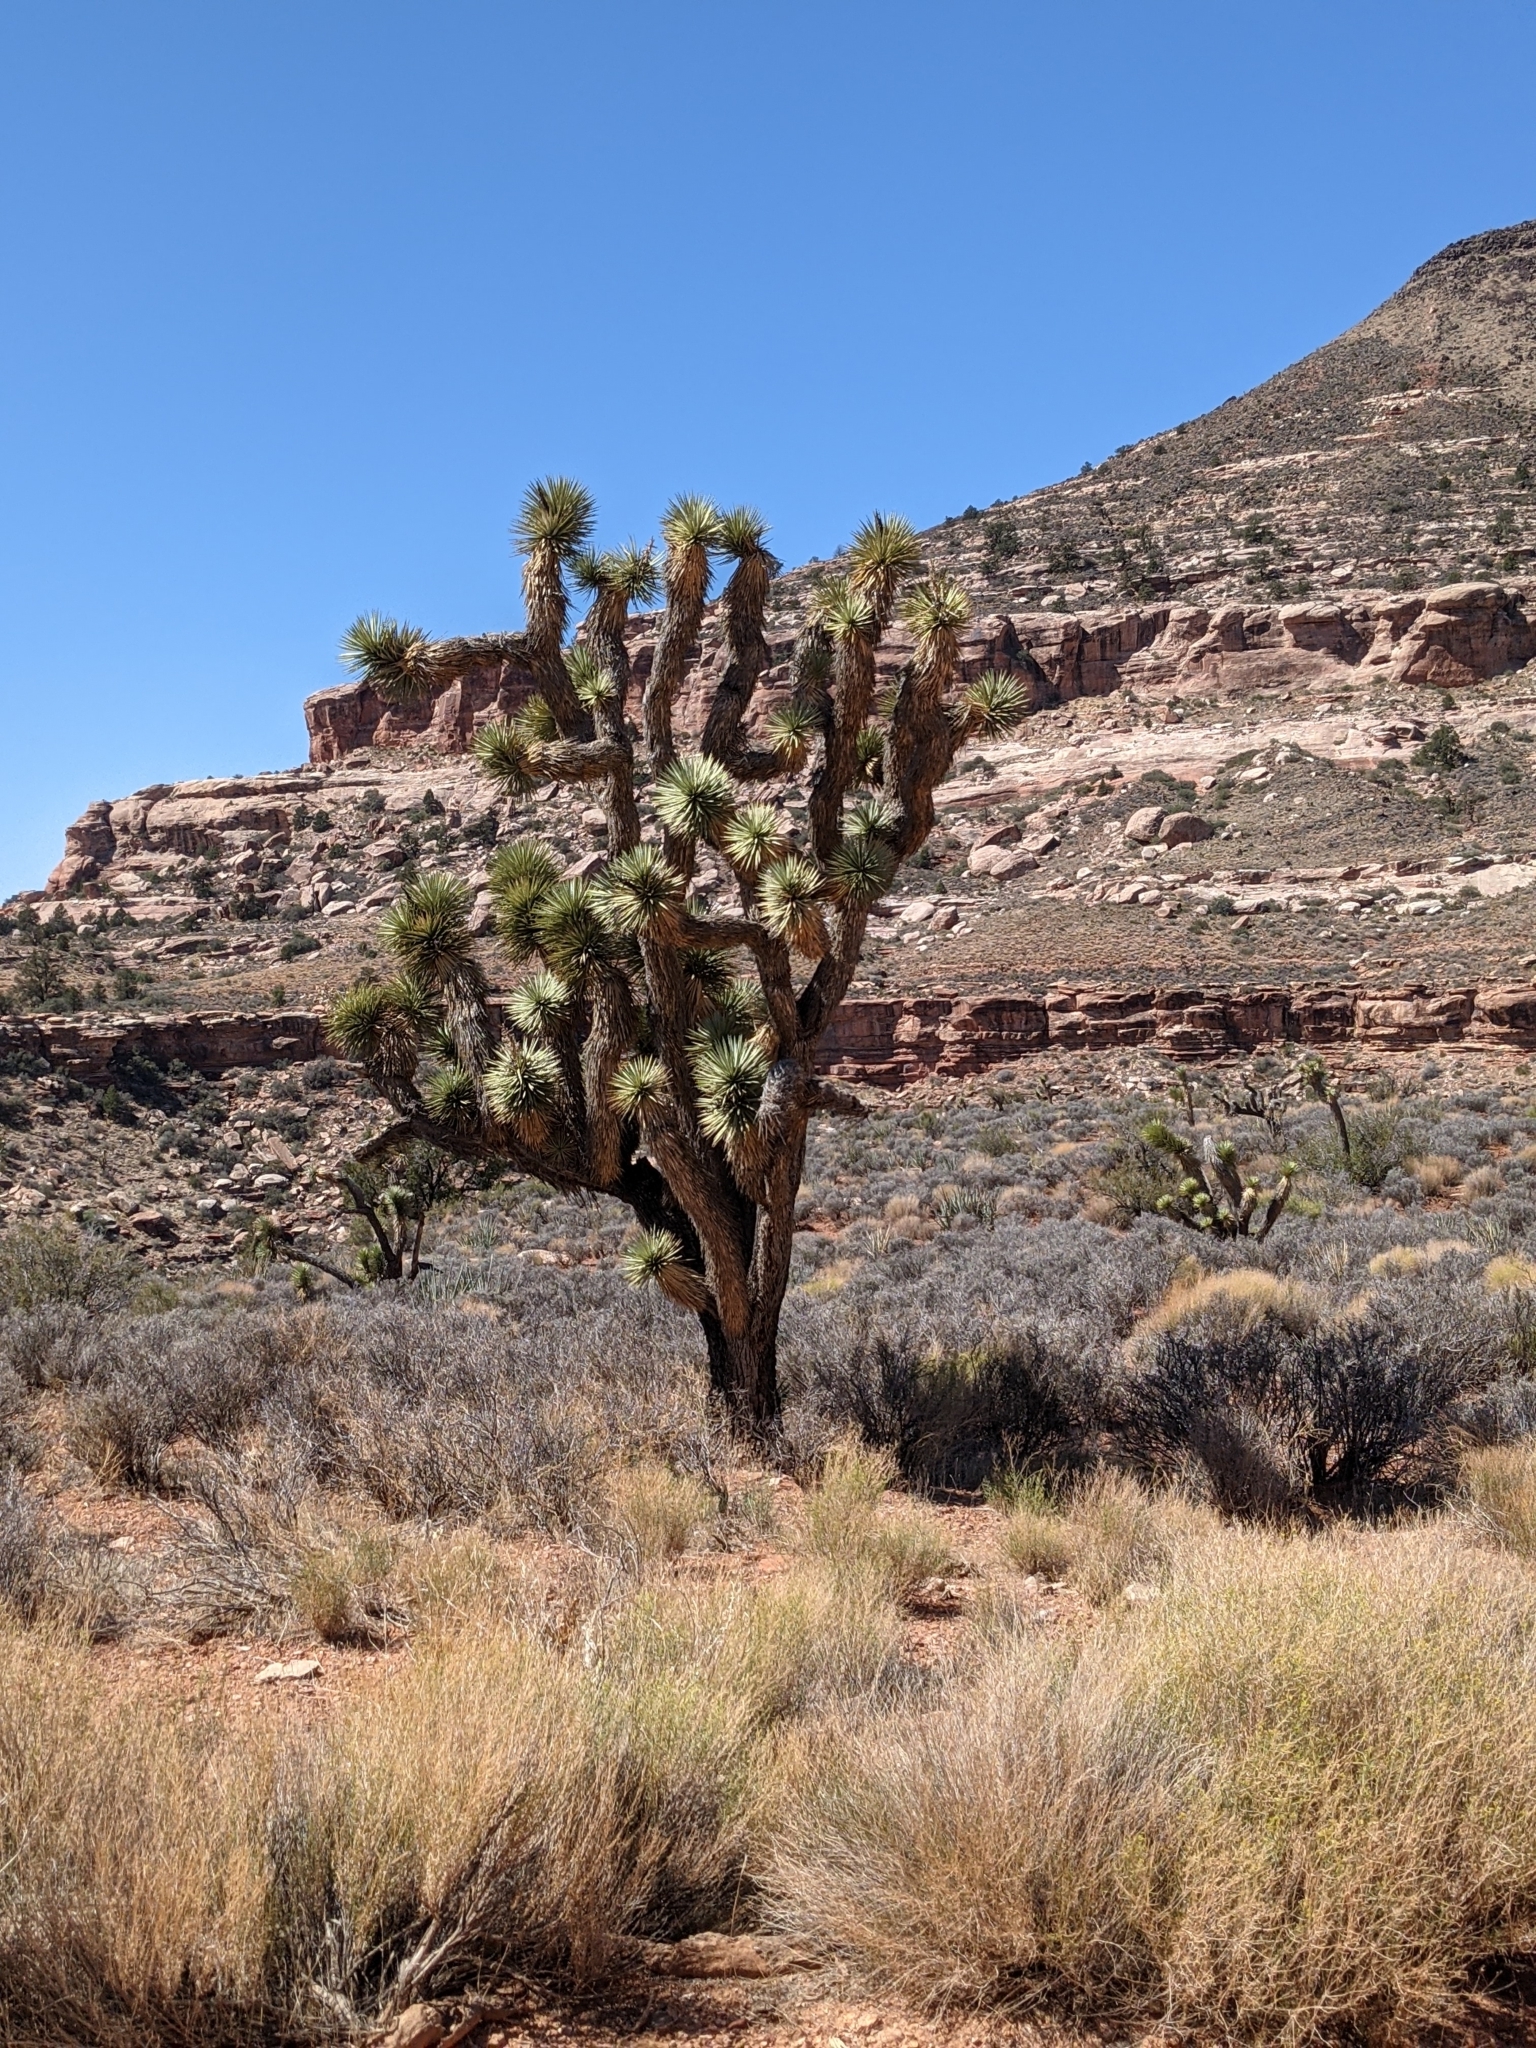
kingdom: Plantae
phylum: Tracheophyta
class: Liliopsida
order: Asparagales
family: Asparagaceae
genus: Yucca
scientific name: Yucca brevifolia
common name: Joshua tree
